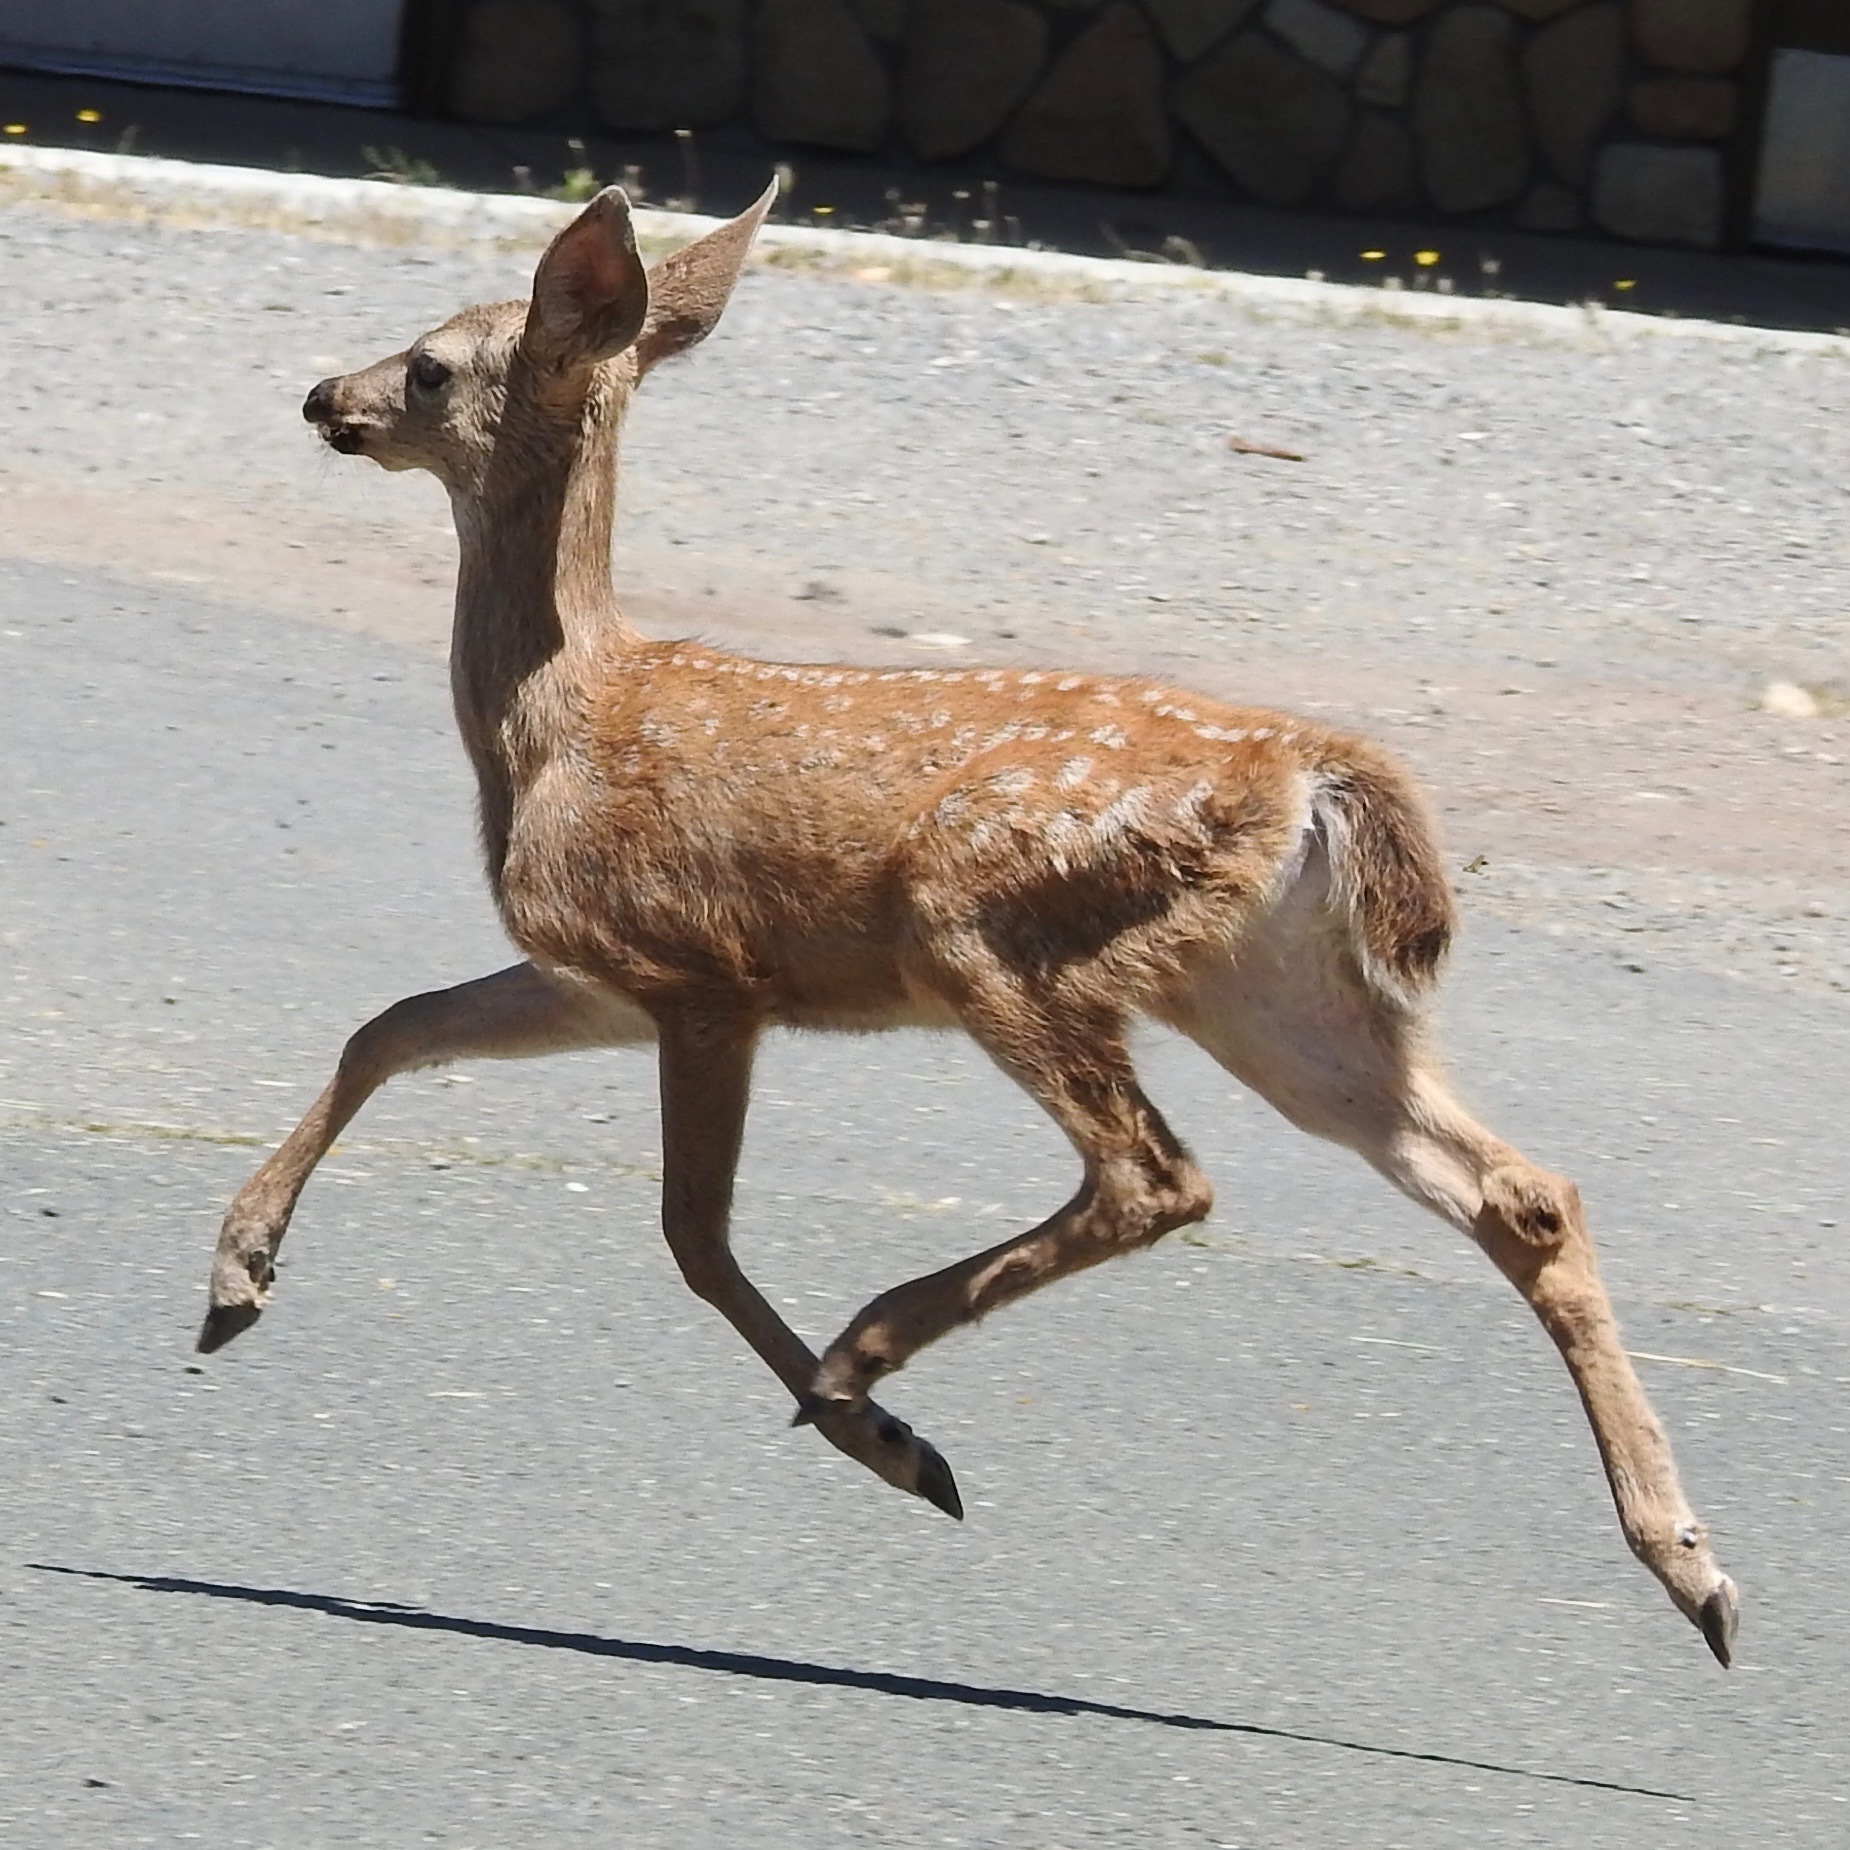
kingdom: Animalia
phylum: Chordata
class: Mammalia
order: Artiodactyla
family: Cervidae
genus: Odocoileus
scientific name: Odocoileus hemionus
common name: Mule deer
